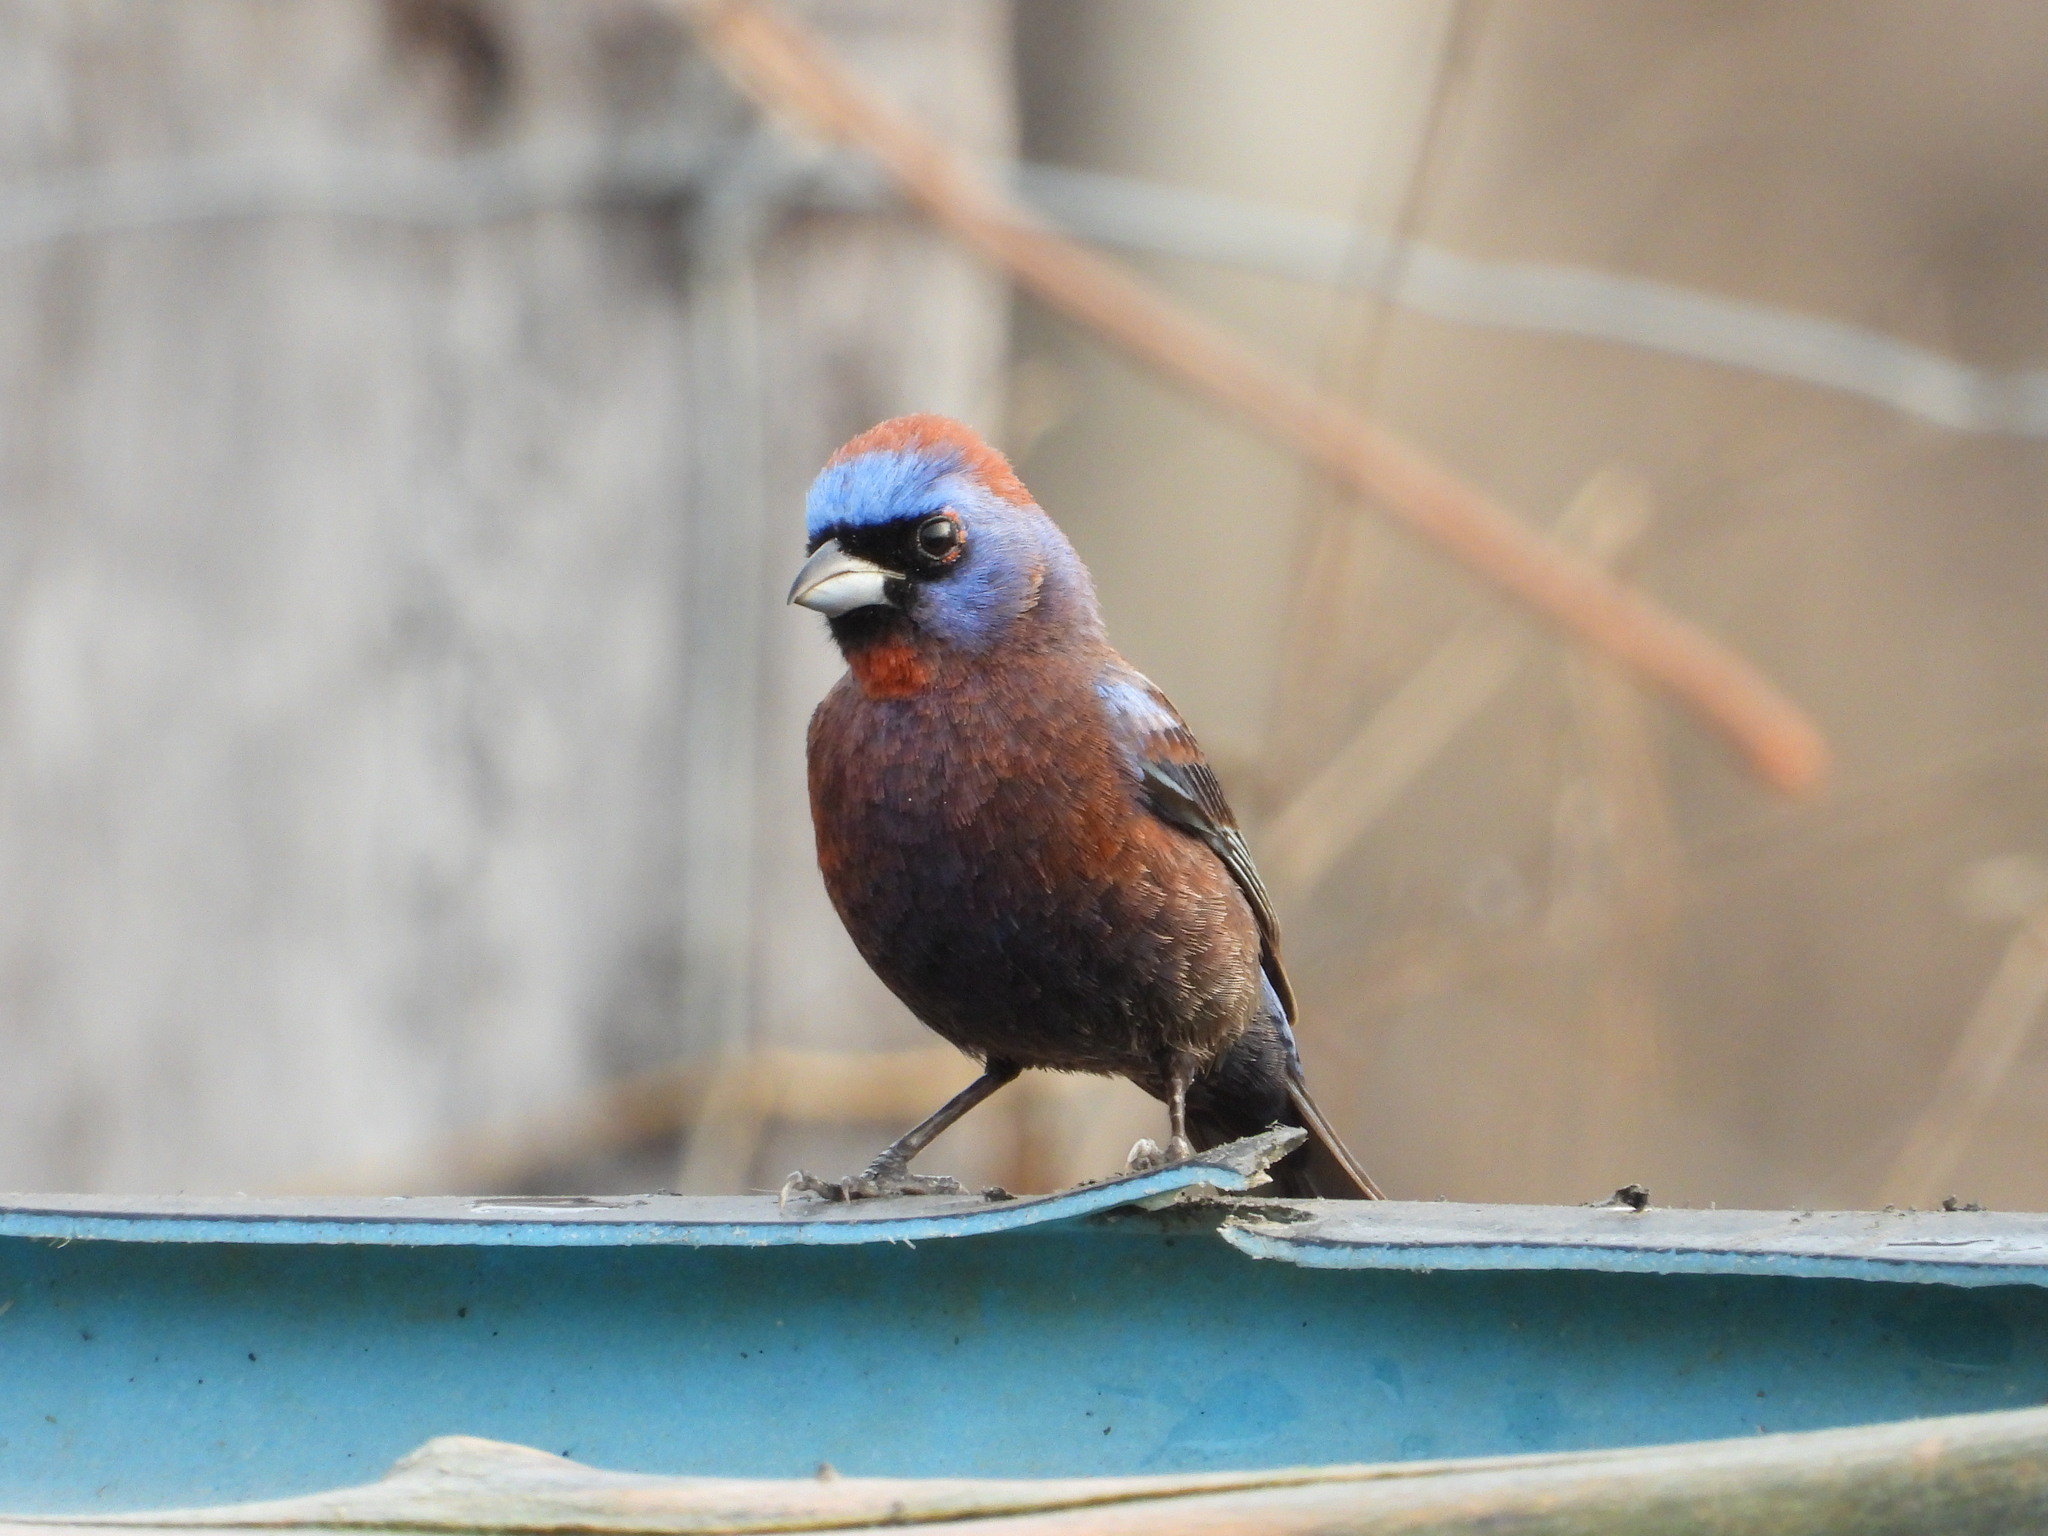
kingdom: Animalia
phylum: Chordata
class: Aves
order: Passeriformes
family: Cardinalidae
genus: Passerina
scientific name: Passerina versicolor
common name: Varied bunting
